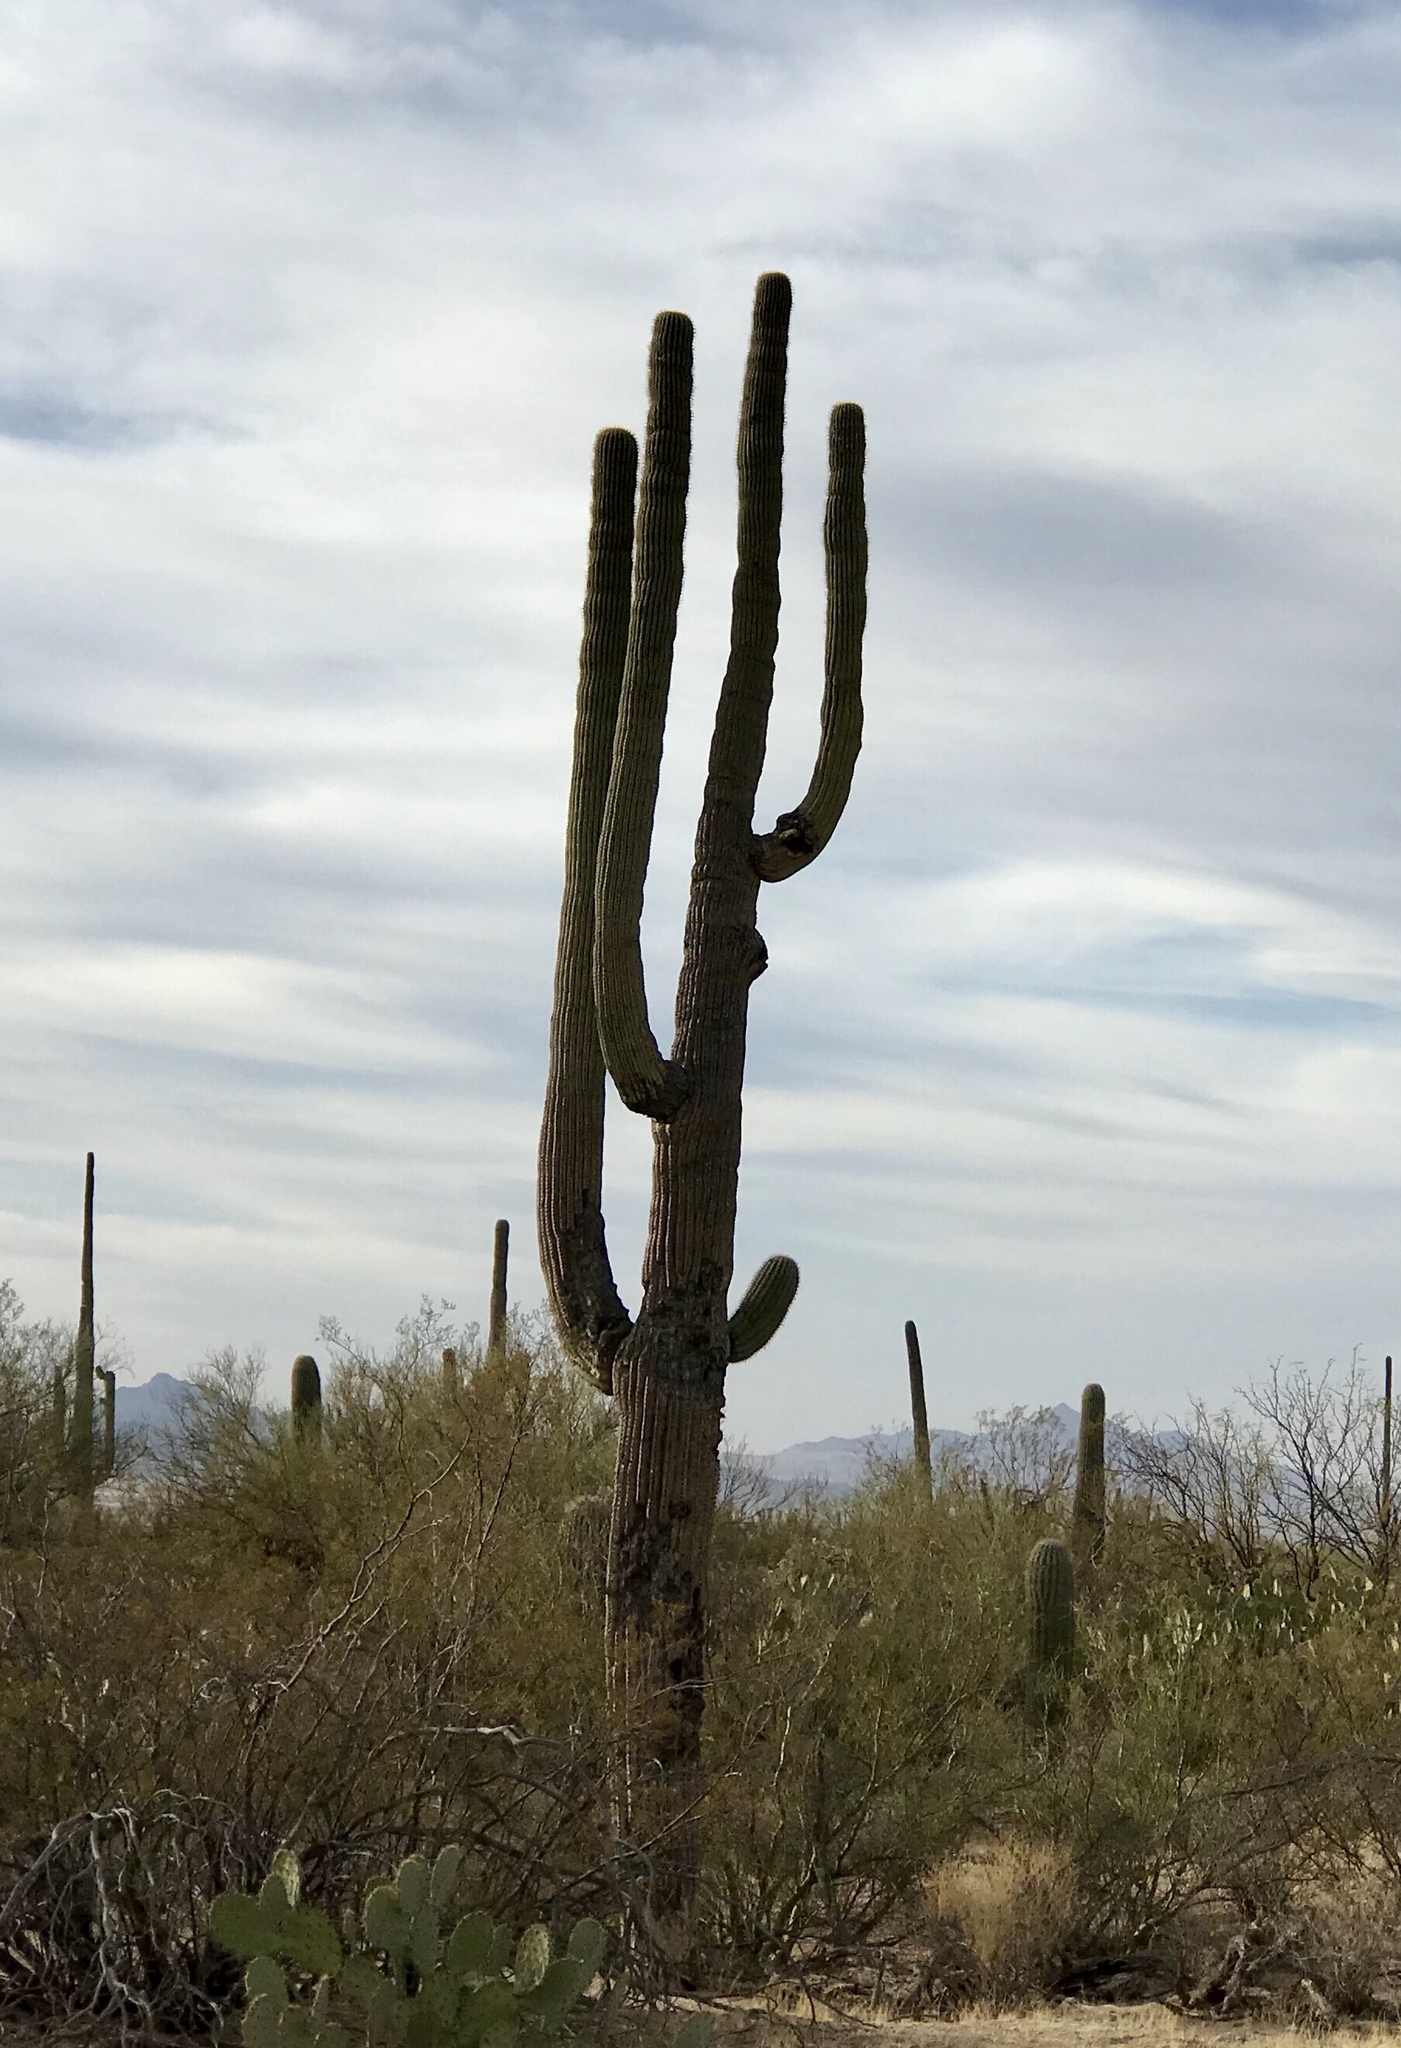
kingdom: Plantae
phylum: Tracheophyta
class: Magnoliopsida
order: Caryophyllales
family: Cactaceae
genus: Carnegiea
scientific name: Carnegiea gigantea
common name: Saguaro
